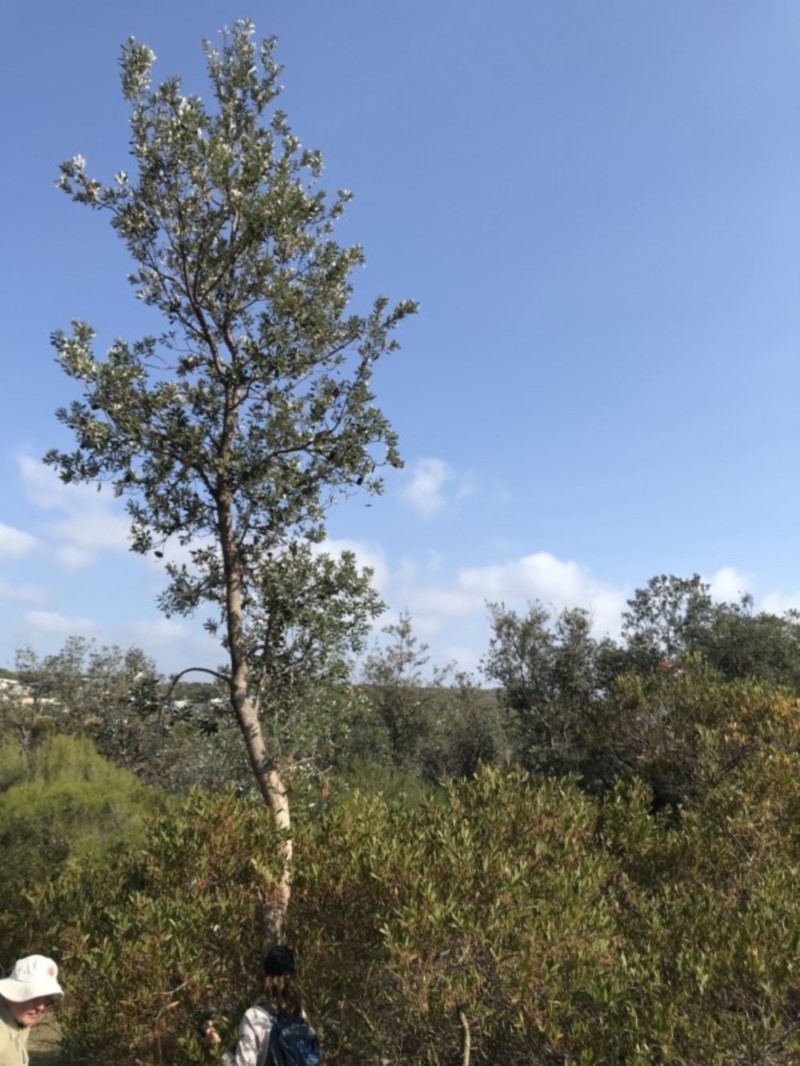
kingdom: Plantae
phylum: Tracheophyta
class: Magnoliopsida
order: Proteales
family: Proteaceae
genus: Banksia
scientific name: Banksia integrifolia
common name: White-honeysuckle
